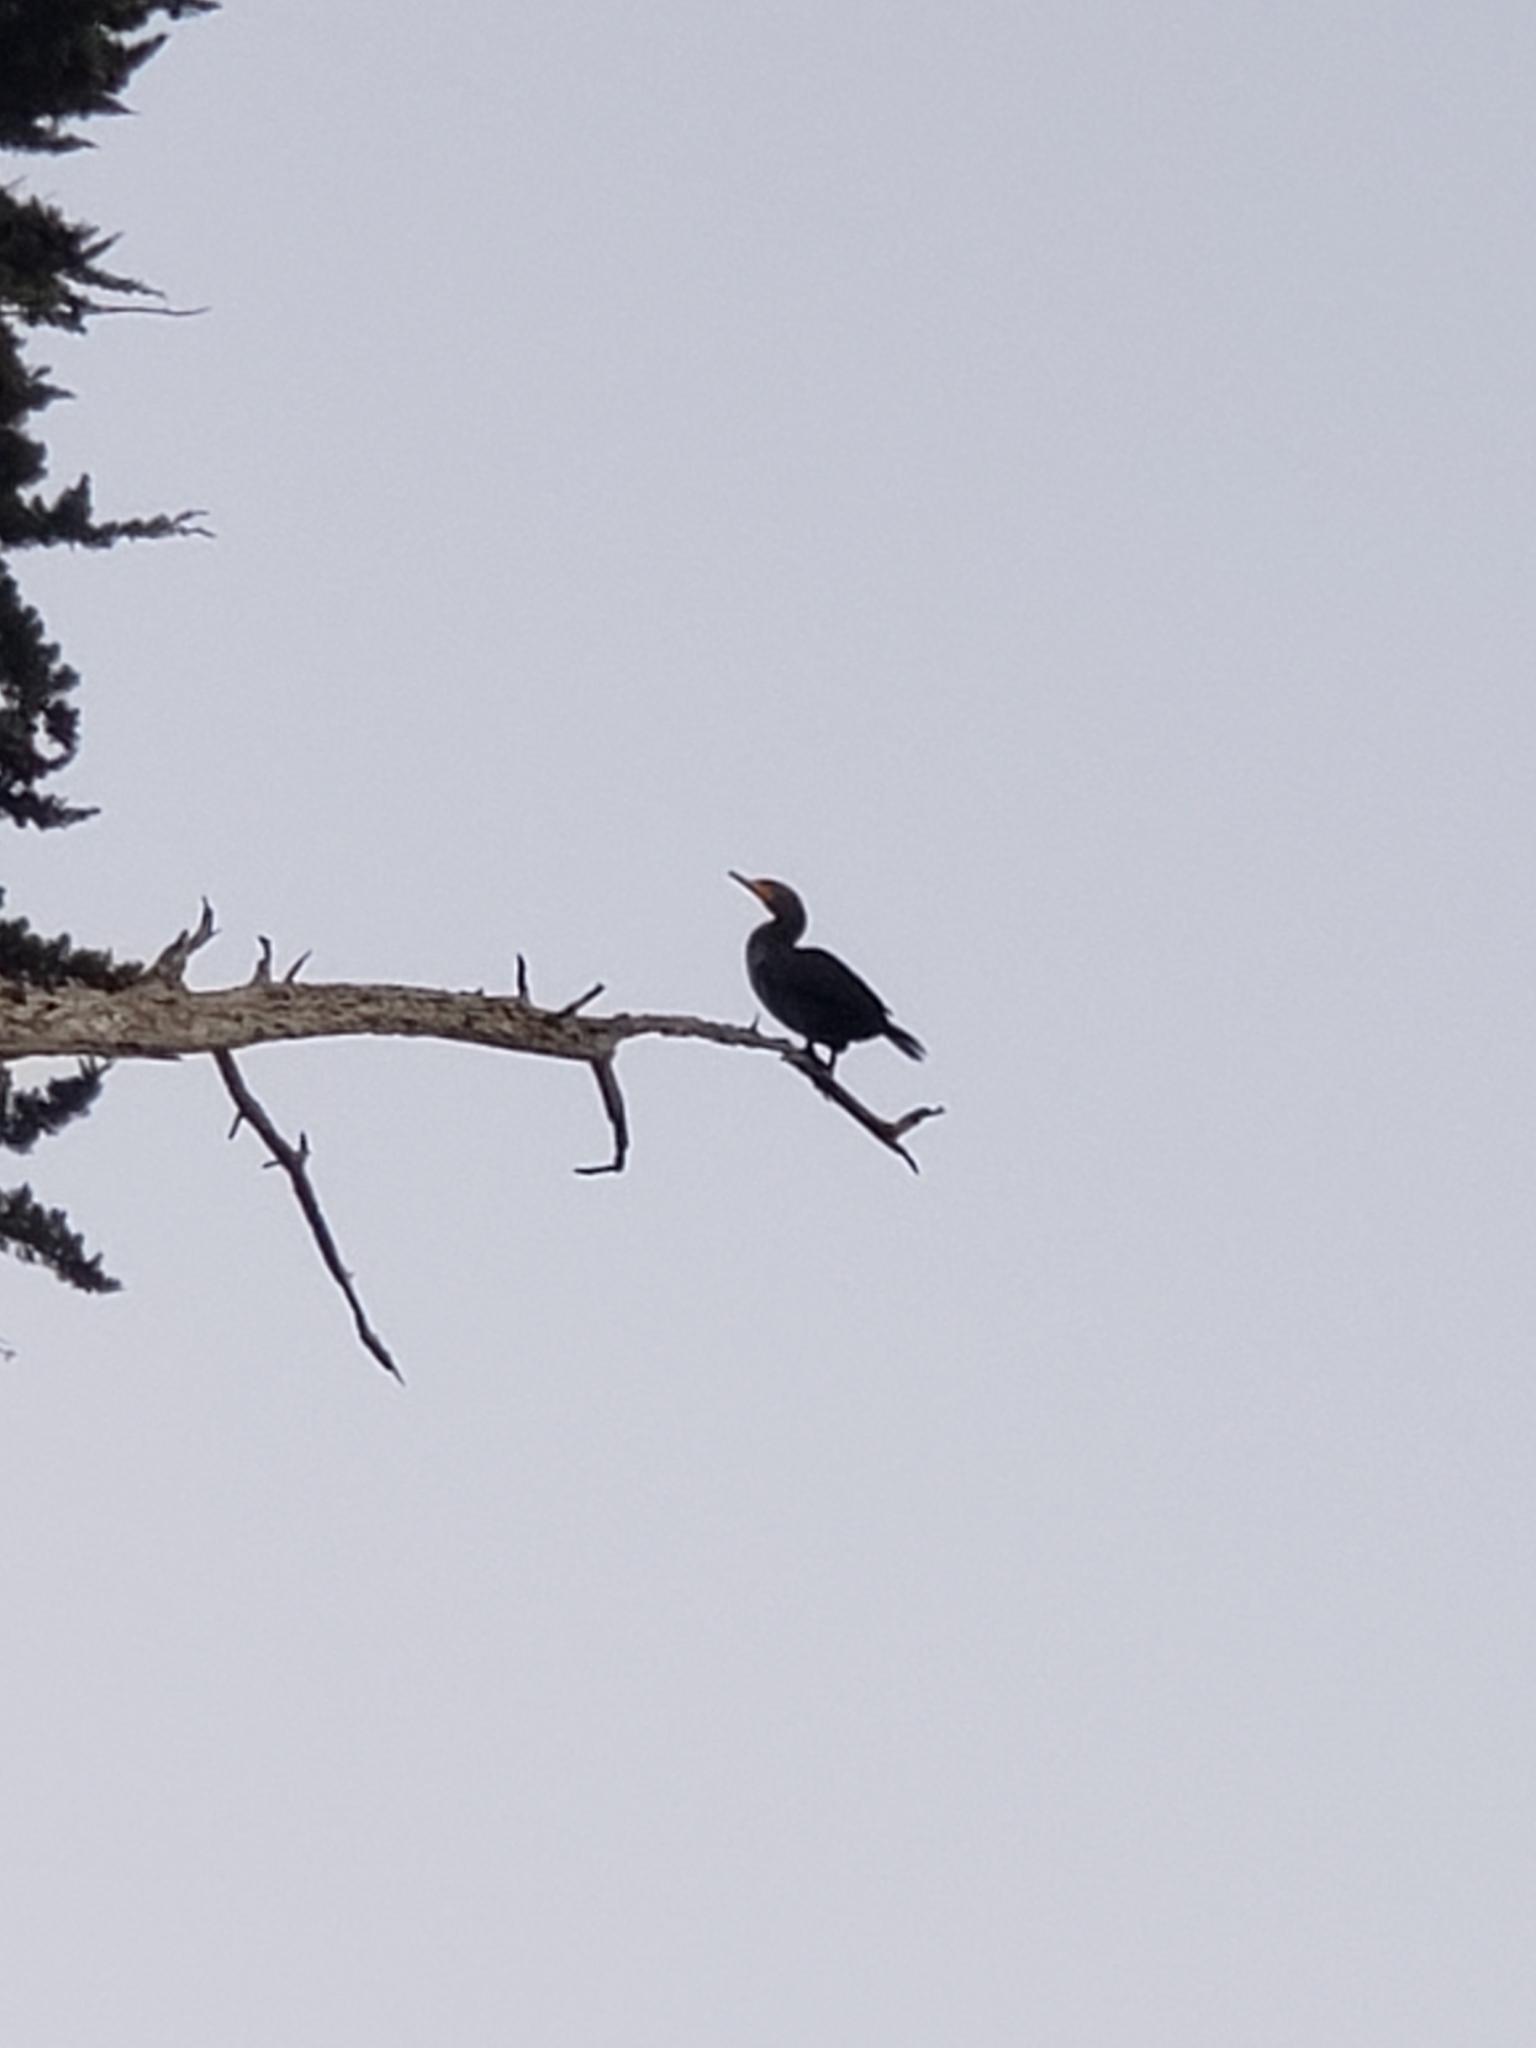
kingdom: Animalia
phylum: Chordata
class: Aves
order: Suliformes
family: Phalacrocoracidae
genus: Phalacrocorax
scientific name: Phalacrocorax auritus
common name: Double-crested cormorant
